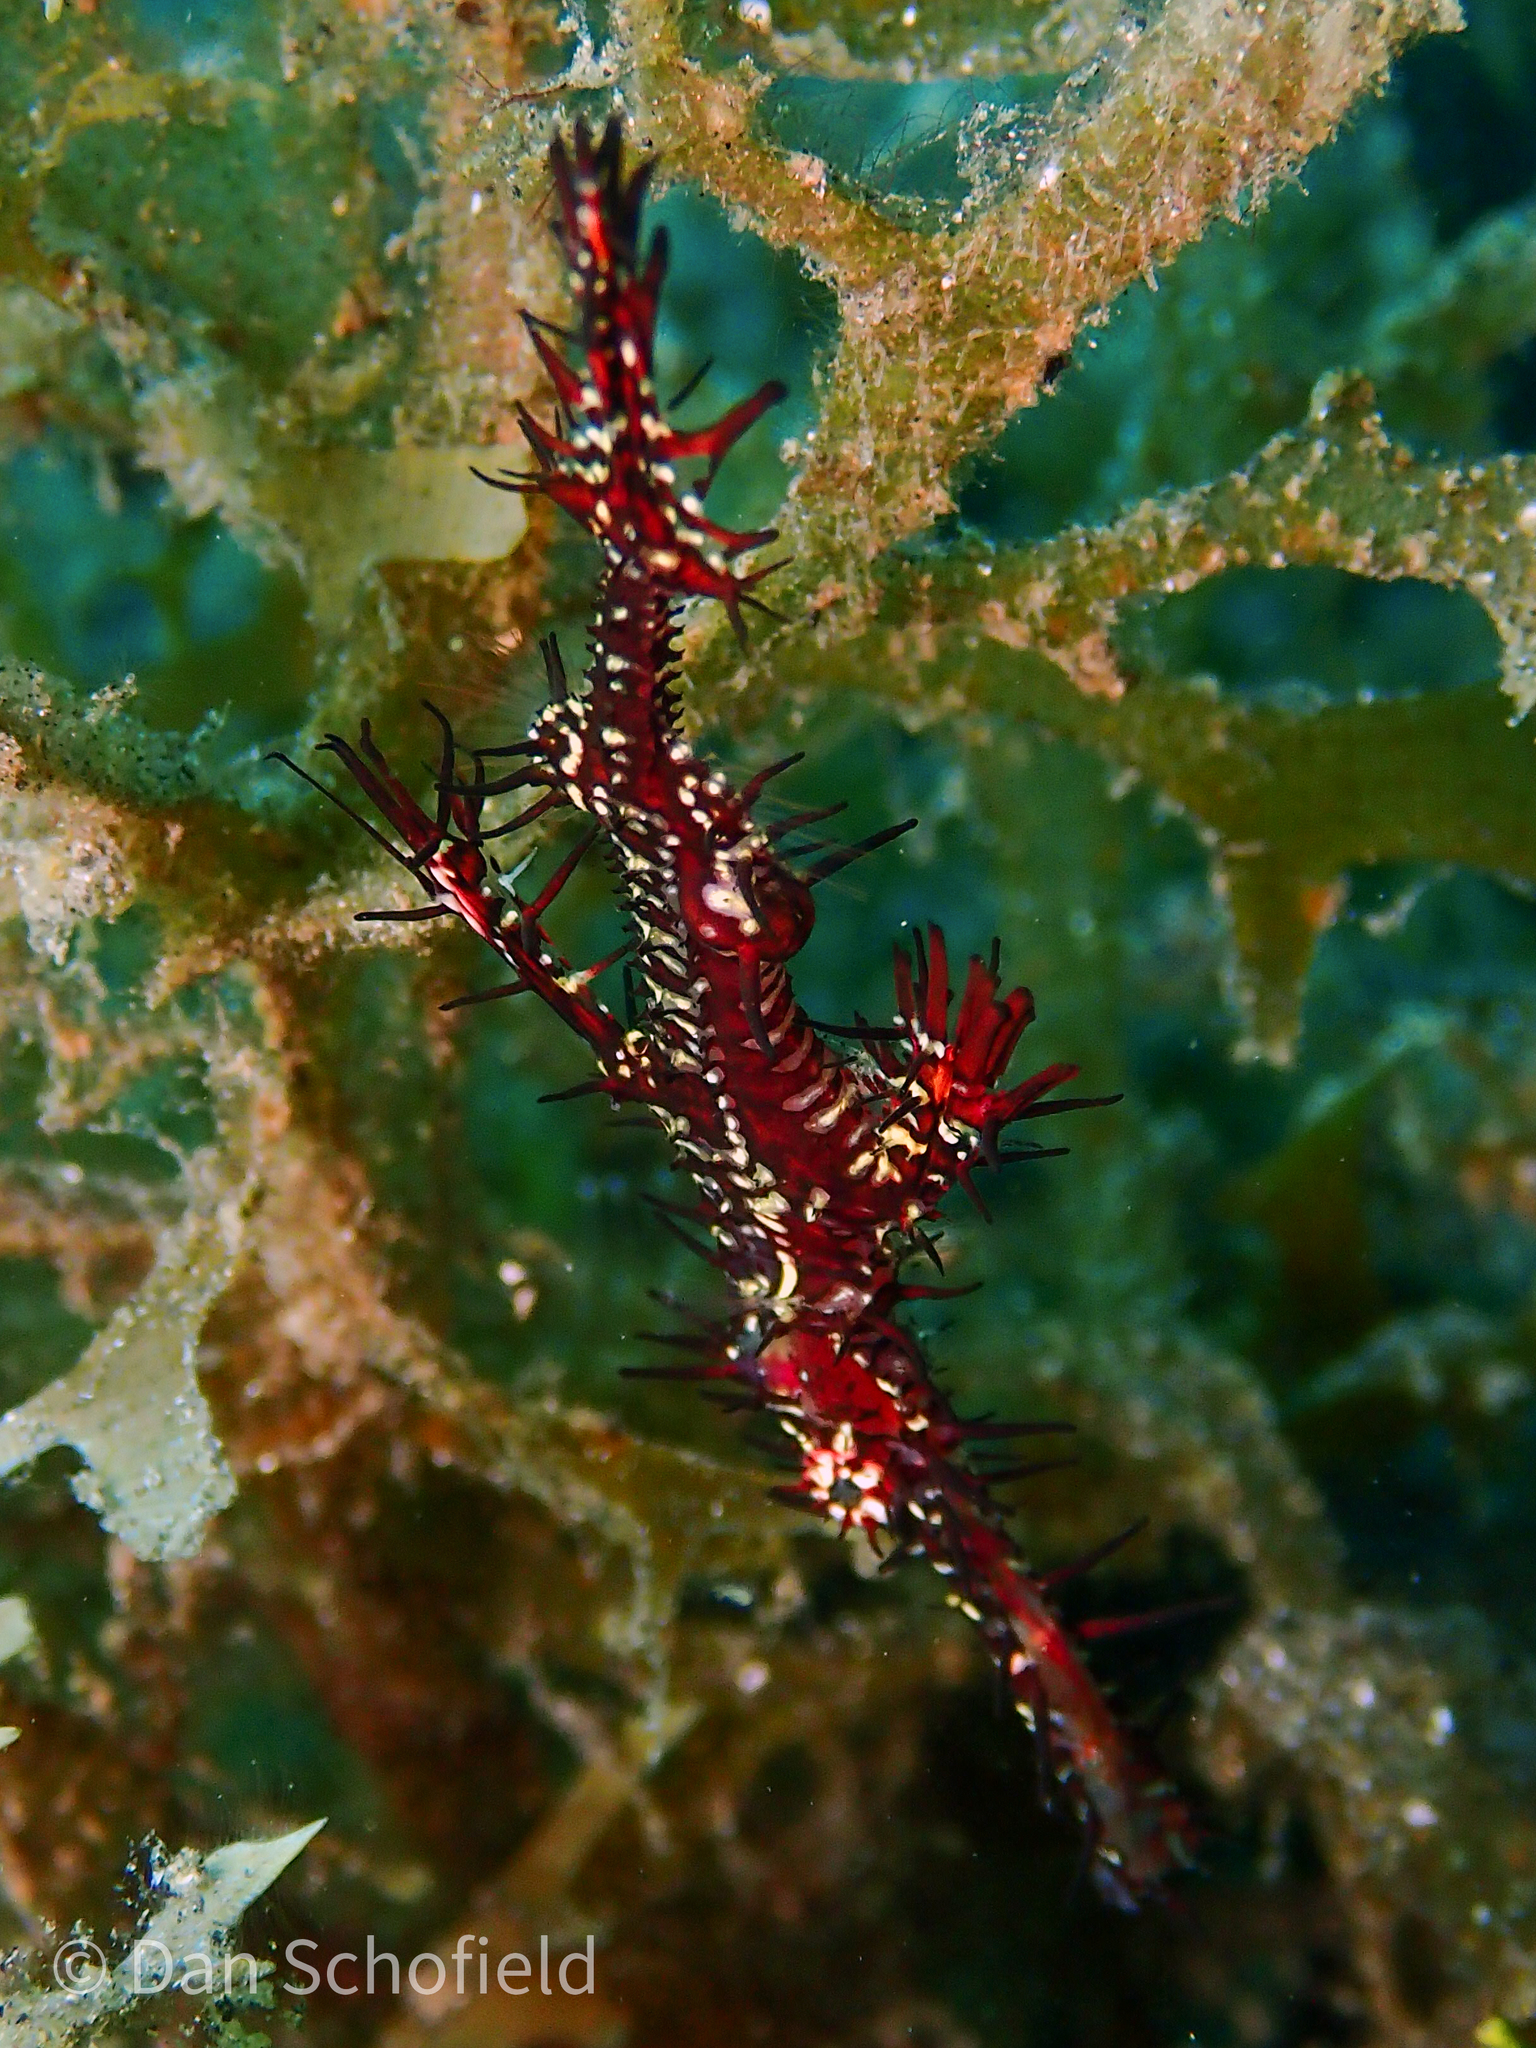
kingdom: Animalia
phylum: Chordata
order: Syngnathiformes
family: Solenostomidae
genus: Solenostomus
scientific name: Solenostomus paradoxus
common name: Ghost pipefish
